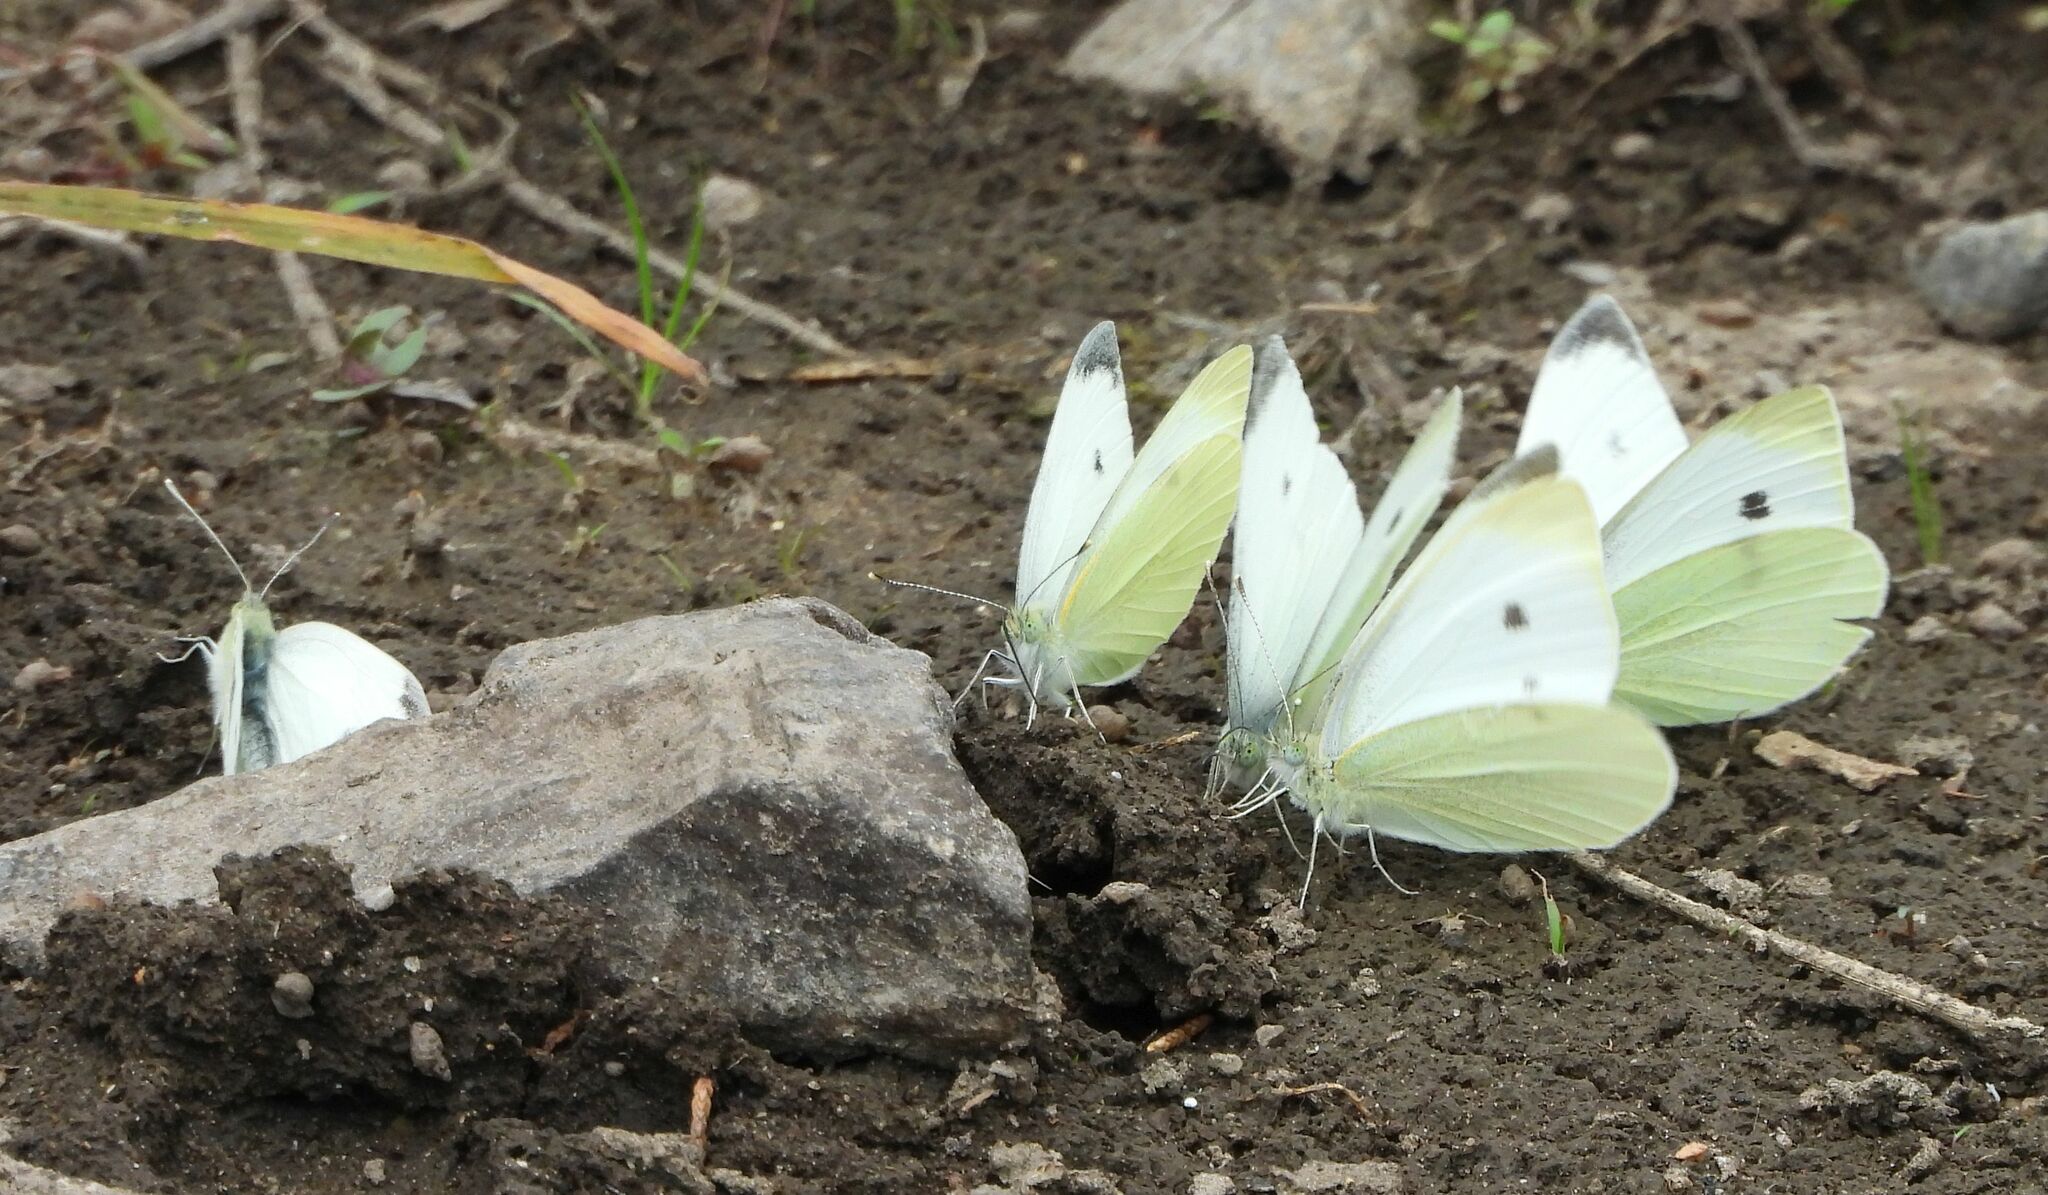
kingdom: Animalia
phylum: Arthropoda
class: Insecta
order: Lepidoptera
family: Pieridae
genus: Pieris
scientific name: Pieris rapae
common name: Small white
